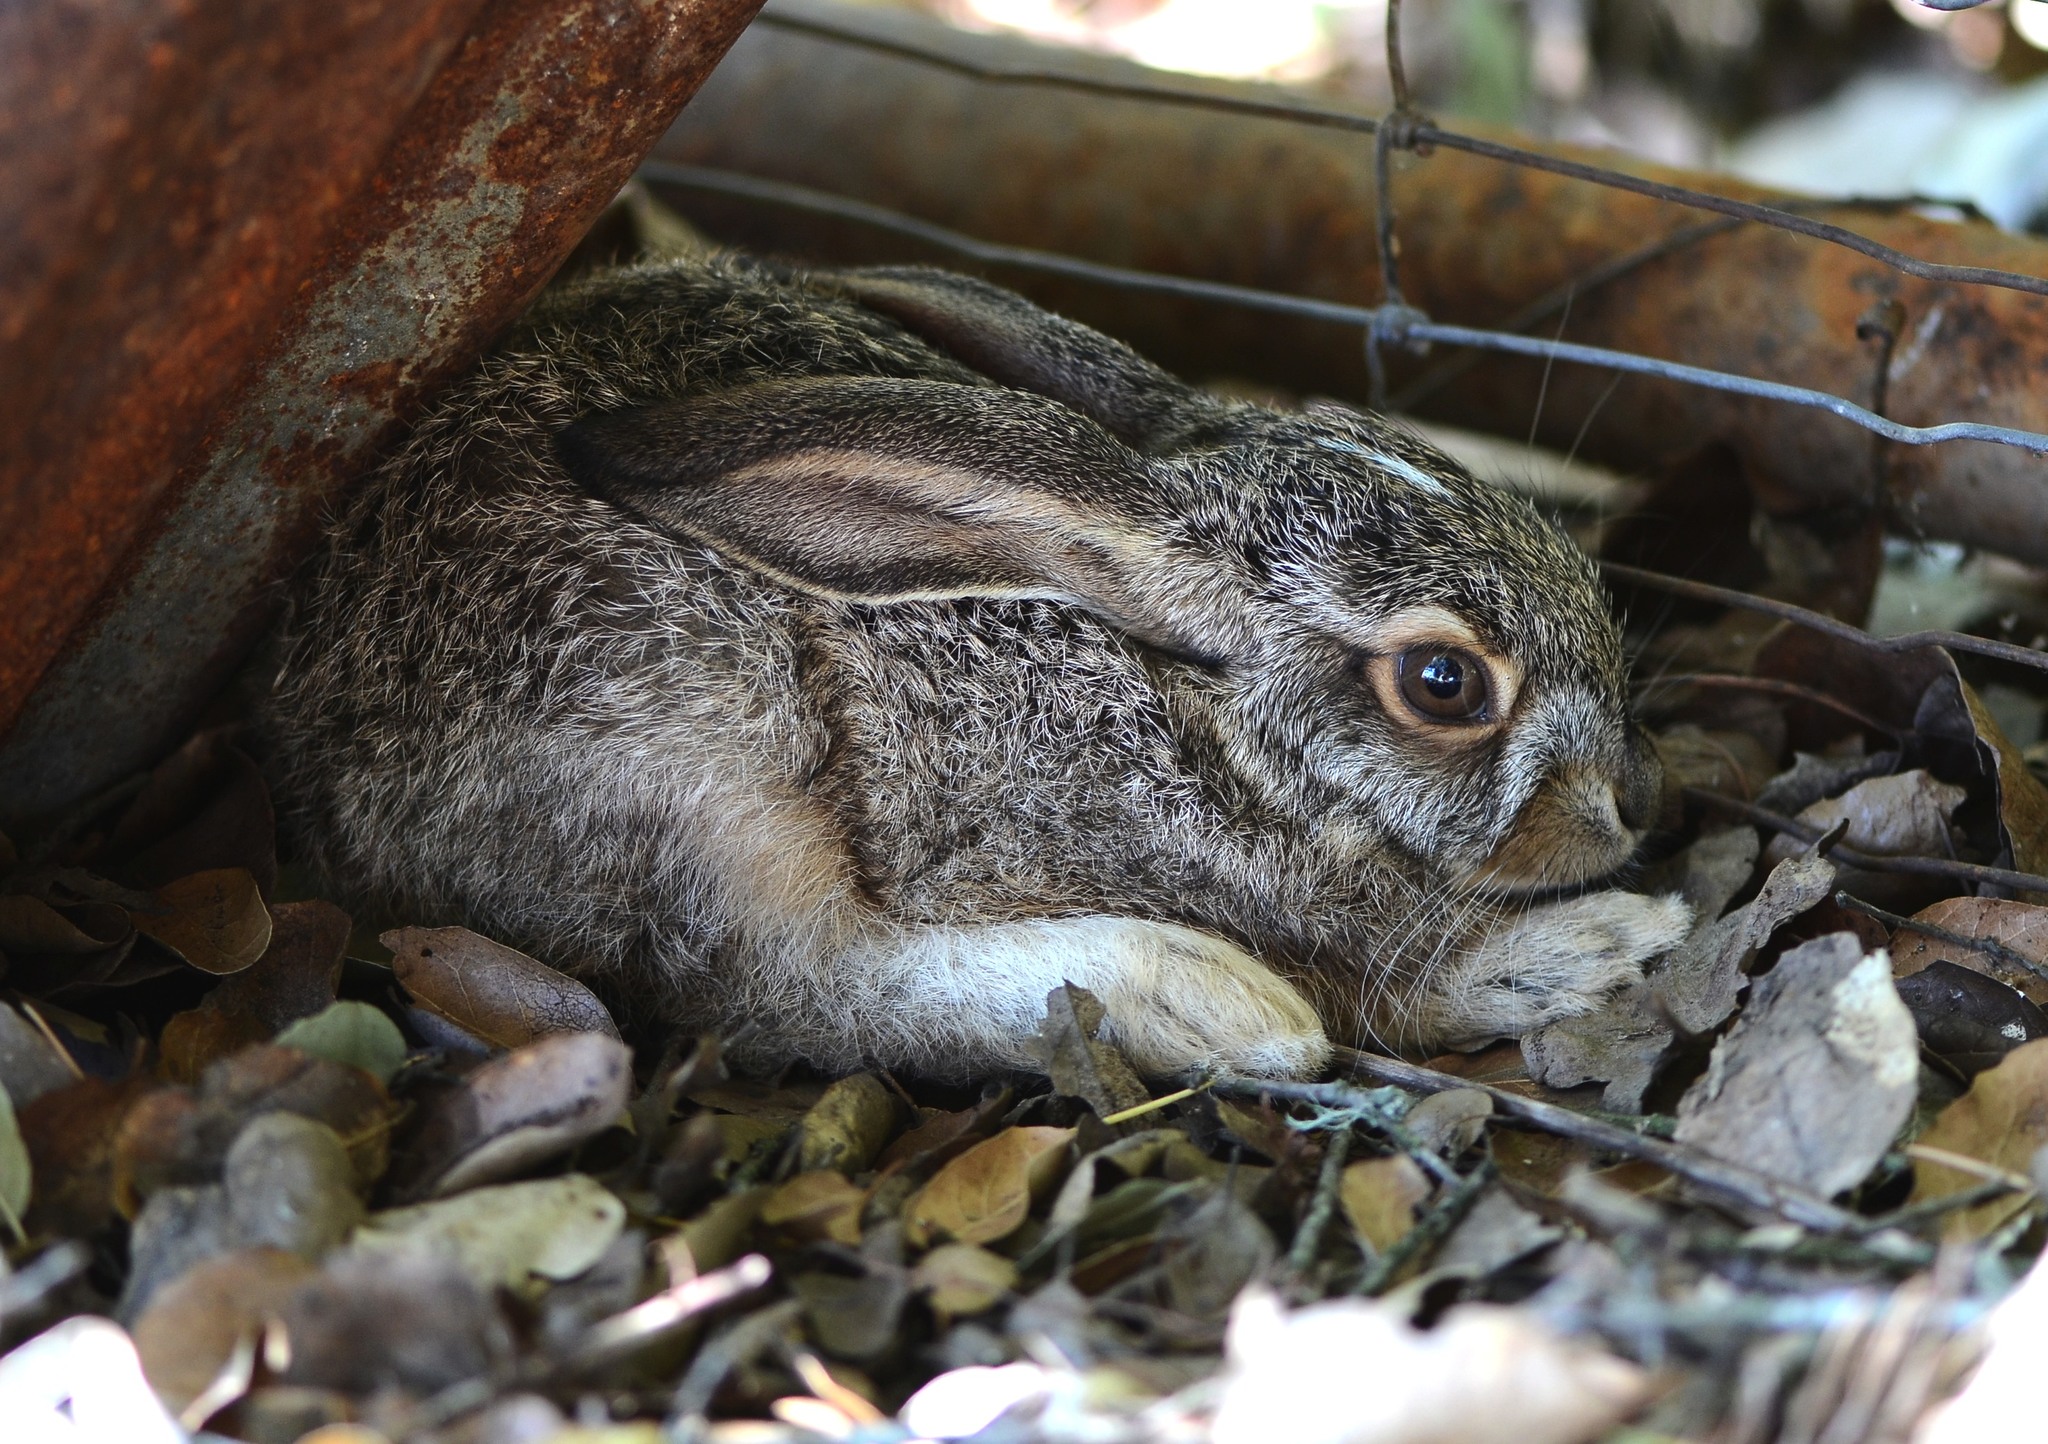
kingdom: Animalia
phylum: Chordata
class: Mammalia
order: Lagomorpha
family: Leporidae
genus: Lepus
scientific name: Lepus californicus
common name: Black-tailed jackrabbit
